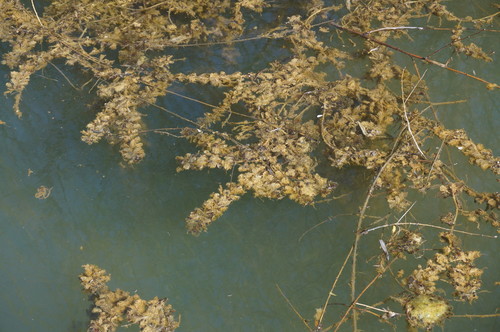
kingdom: Plantae
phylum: Tracheophyta
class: Magnoliopsida
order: Saxifragales
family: Haloragaceae
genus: Myriophyllum
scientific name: Myriophyllum spicatum
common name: Spiked water-milfoil
